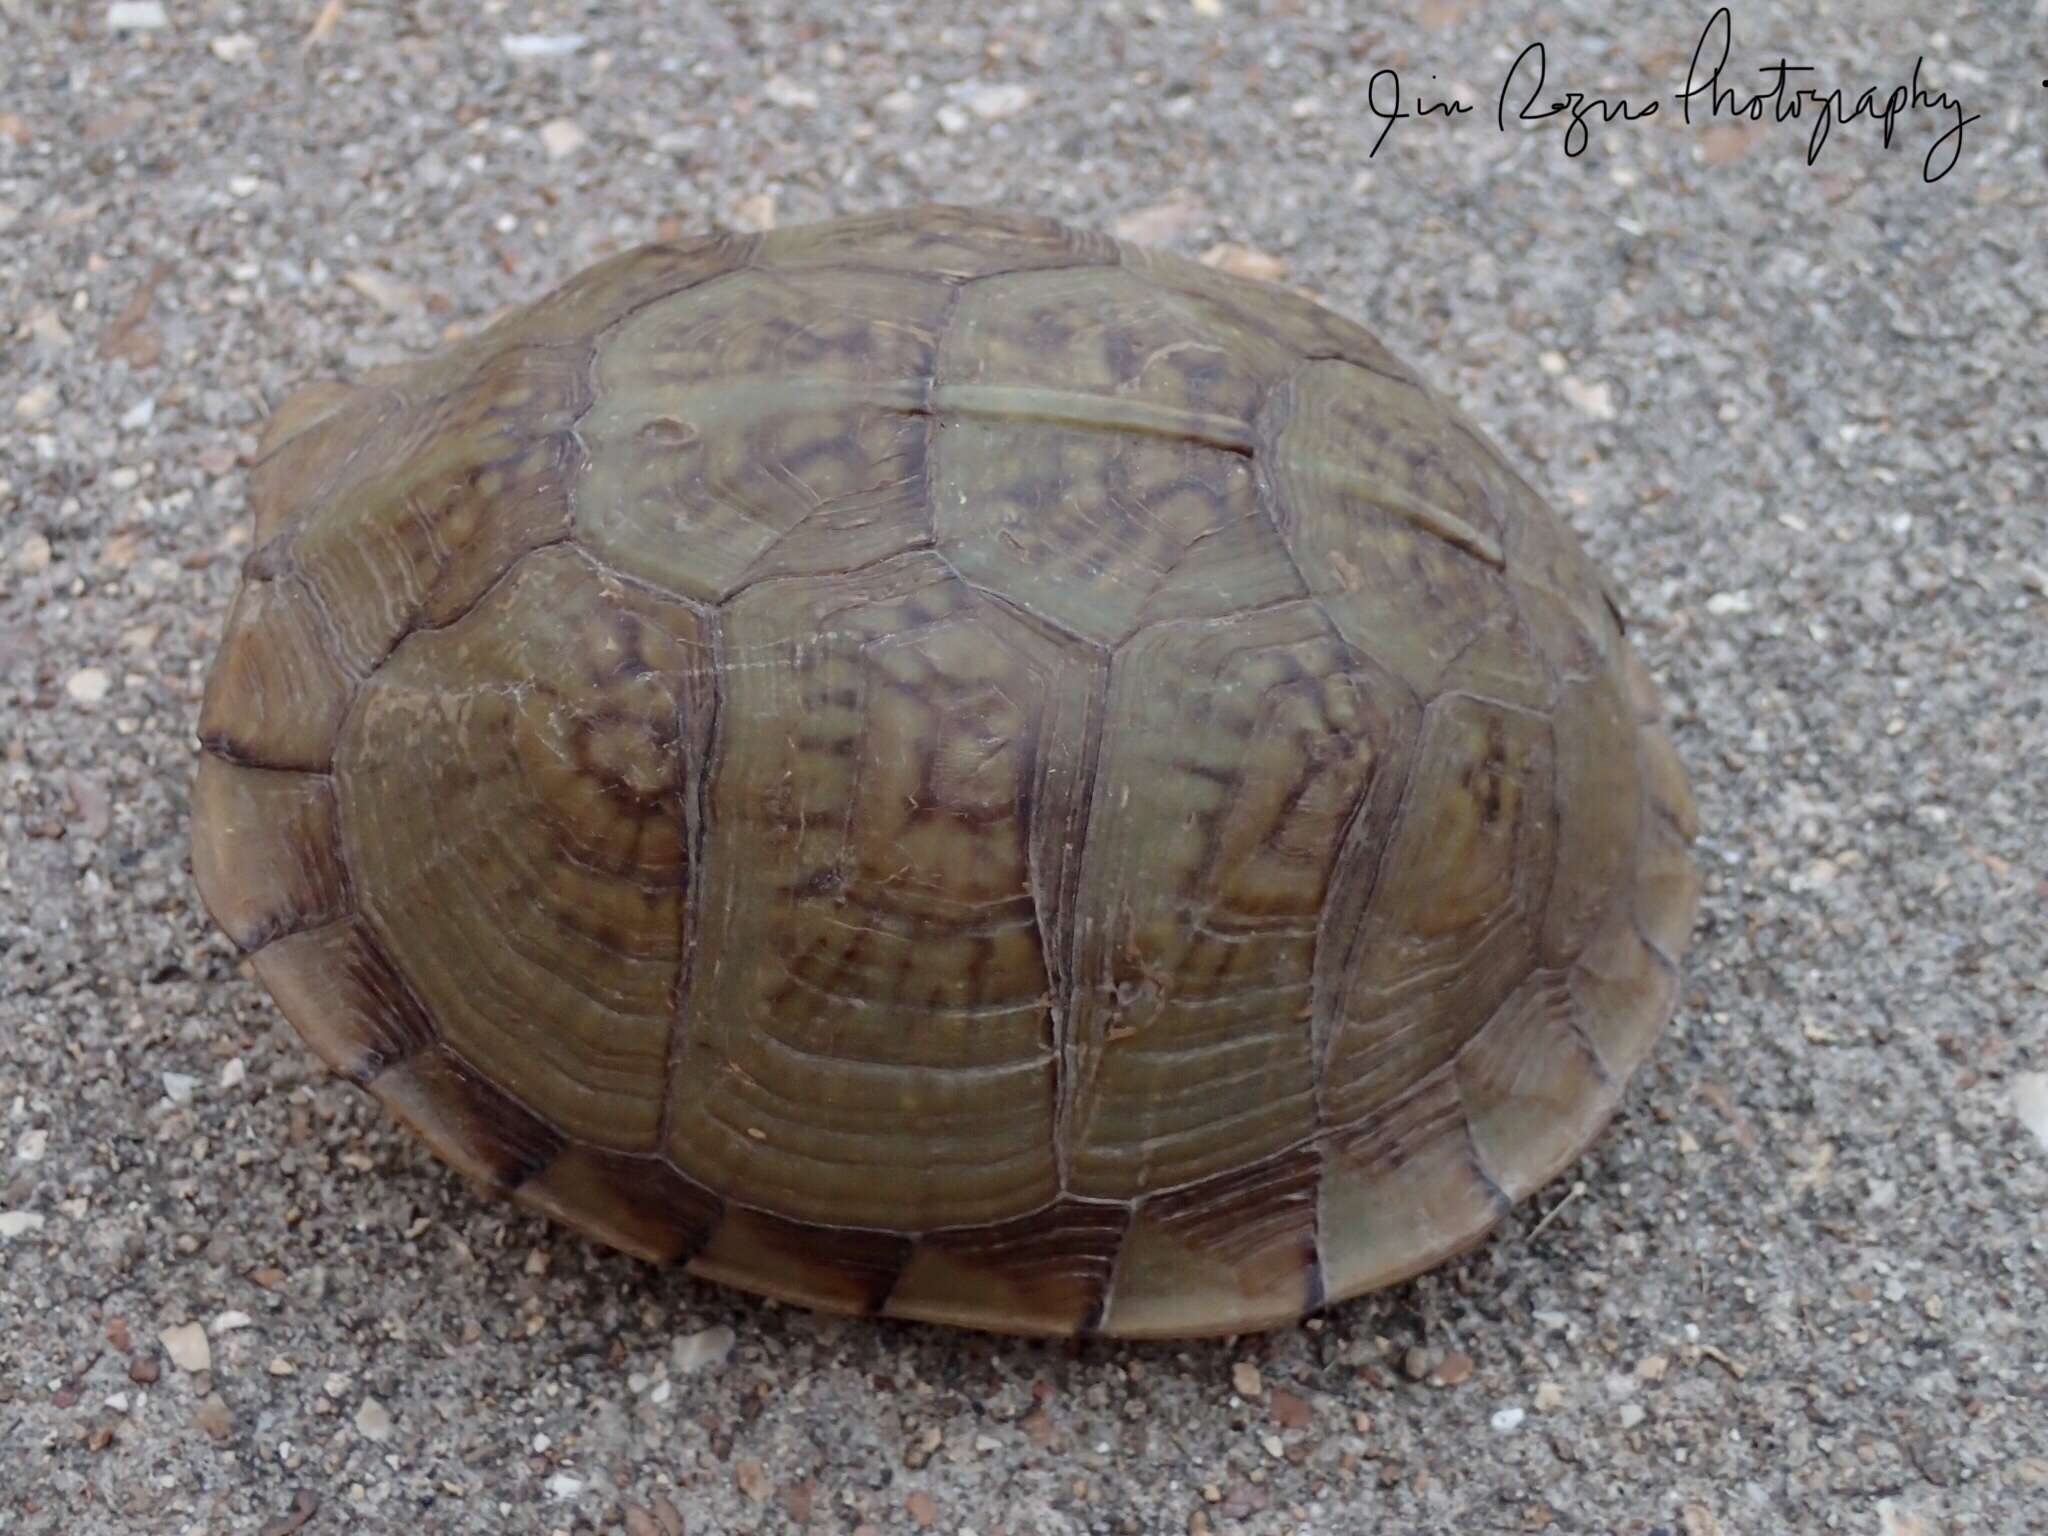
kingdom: Animalia
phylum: Chordata
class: Testudines
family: Emydidae
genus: Terrapene
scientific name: Terrapene carolina
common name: Common box turtle
